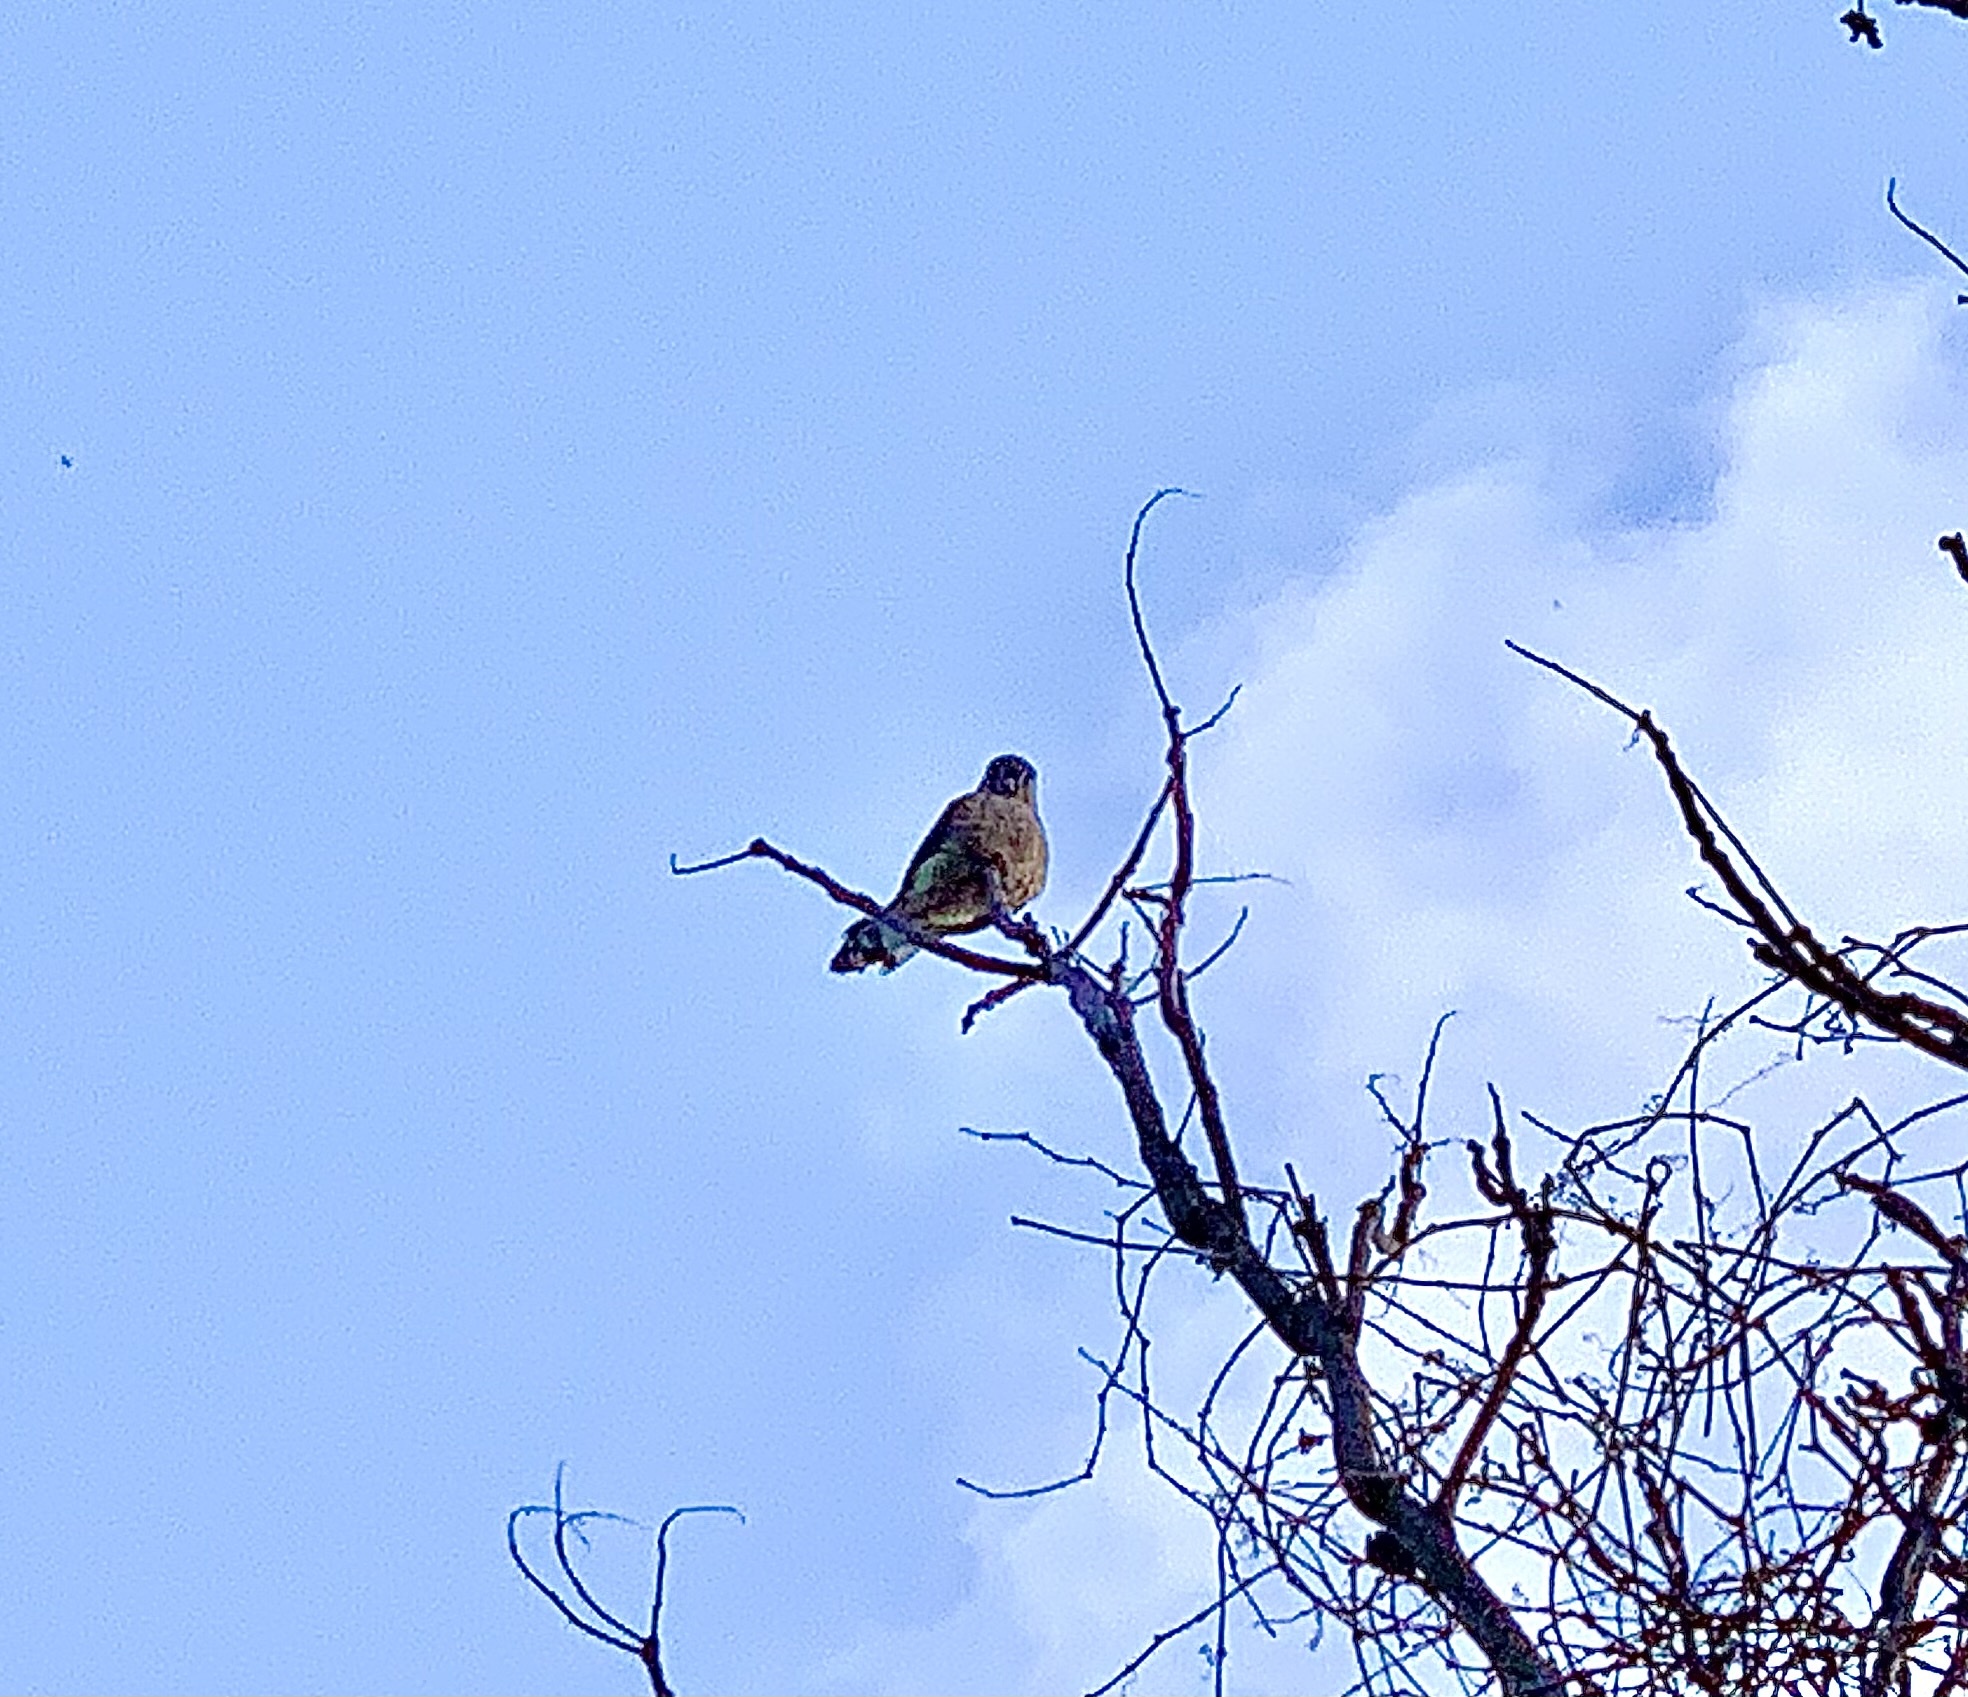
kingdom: Animalia
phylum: Chordata
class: Aves
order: Falconiformes
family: Falconidae
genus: Falco
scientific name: Falco tinnunculus
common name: Common kestrel
